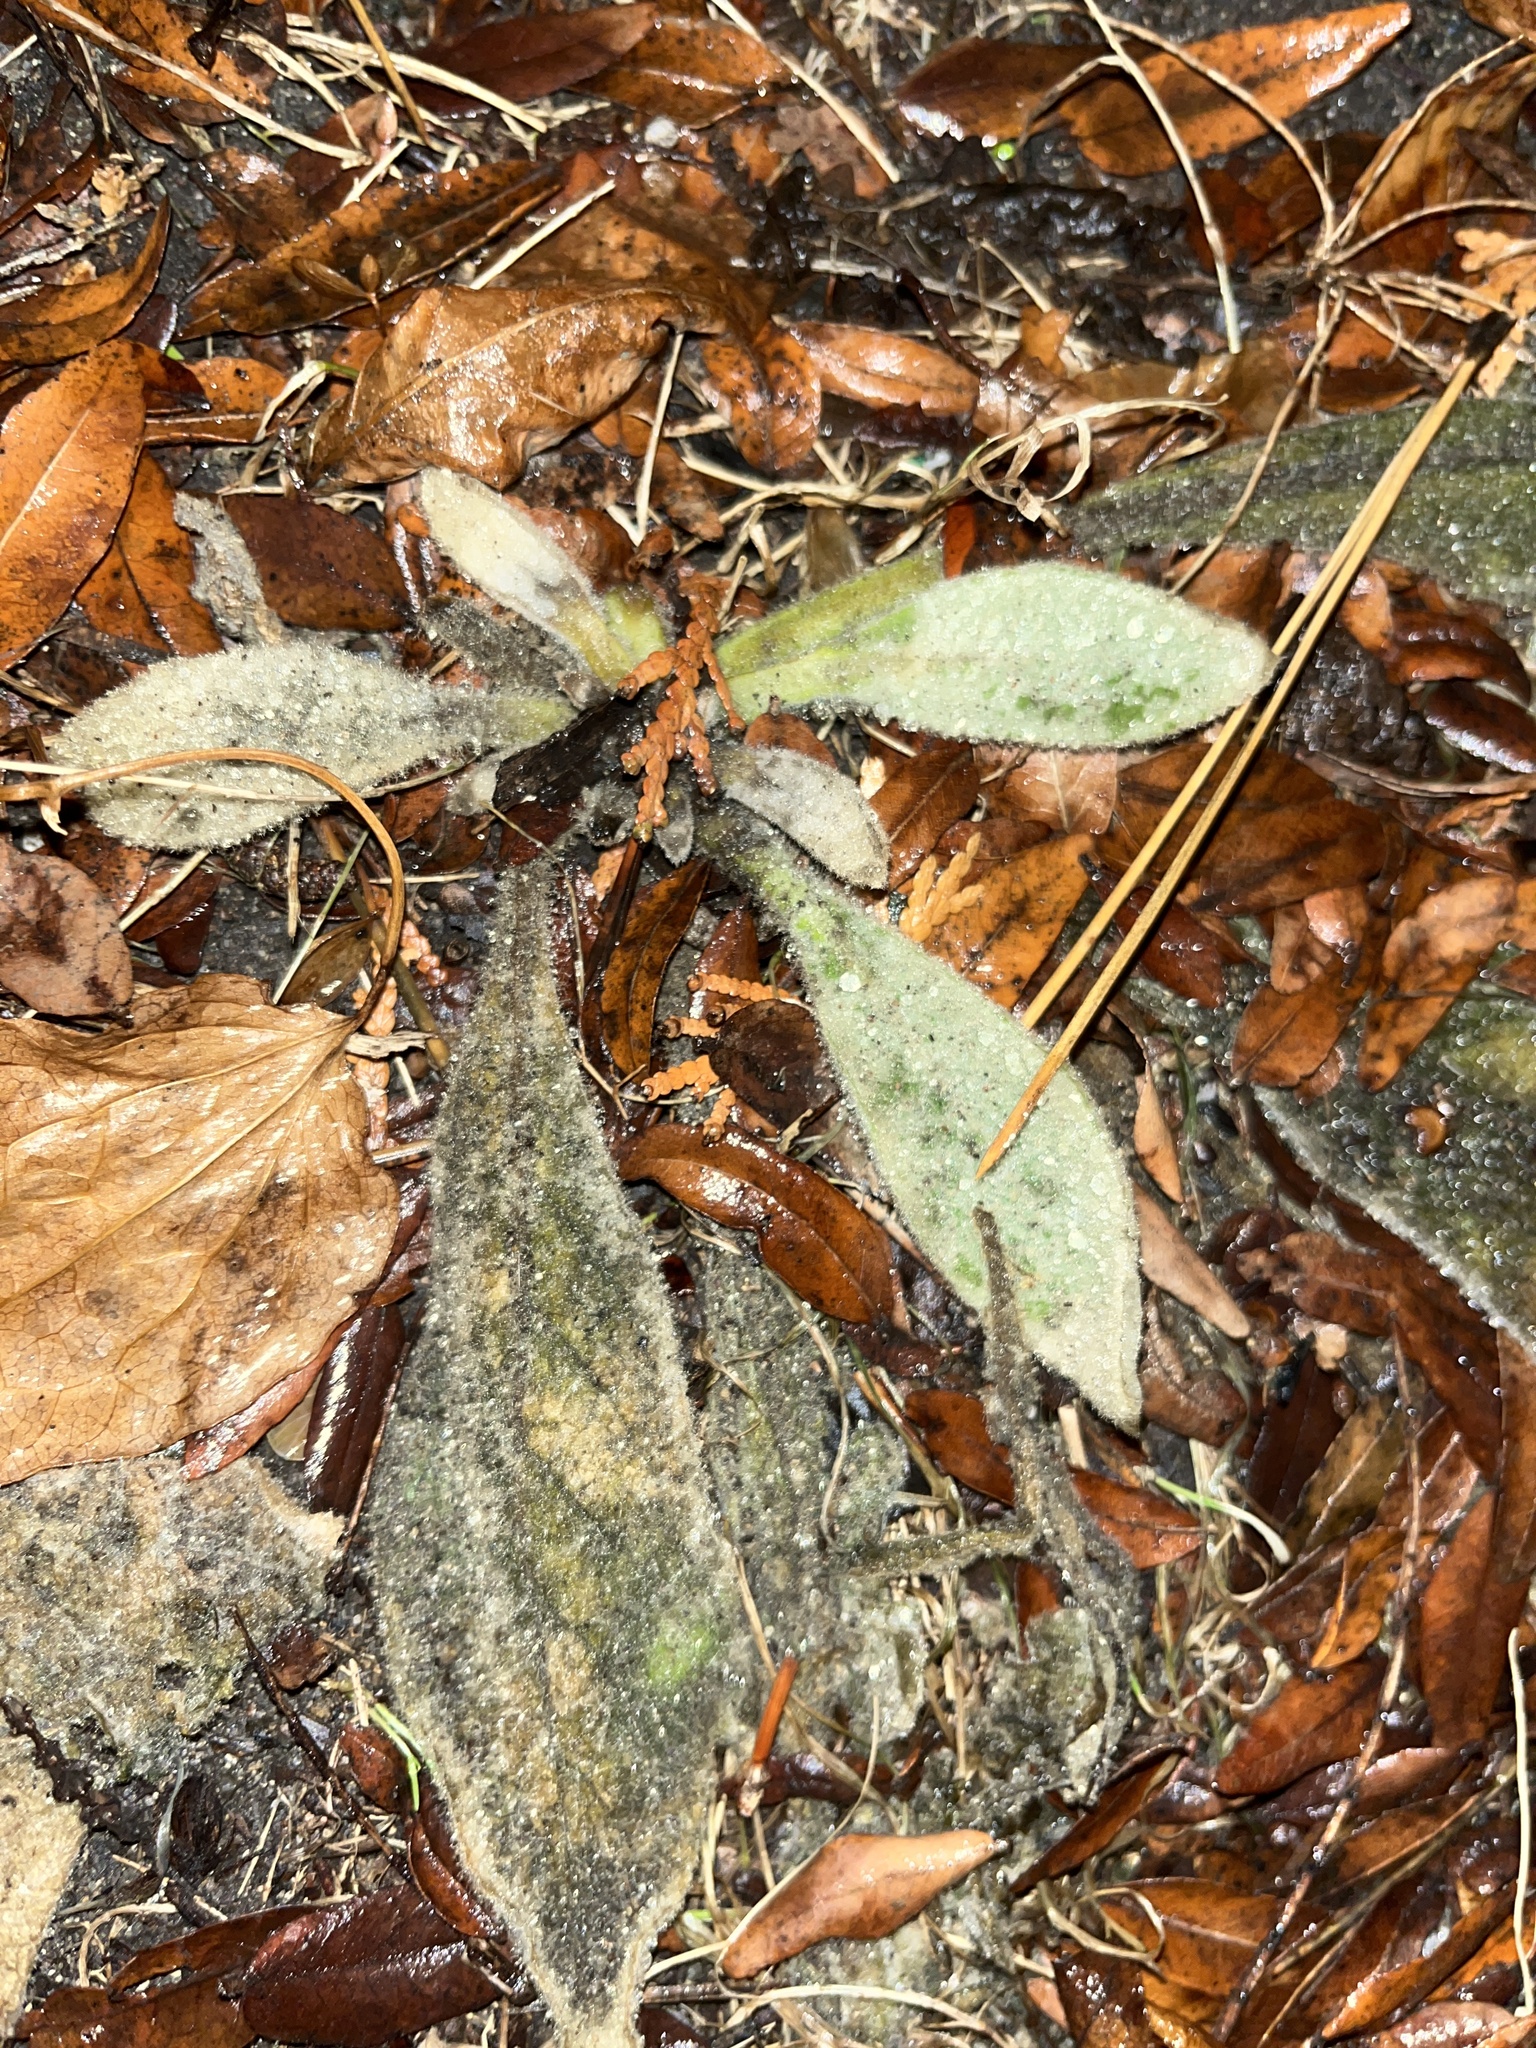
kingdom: Plantae
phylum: Tracheophyta
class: Magnoliopsida
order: Lamiales
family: Scrophulariaceae
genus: Verbascum
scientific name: Verbascum thapsus
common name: Common mullein
